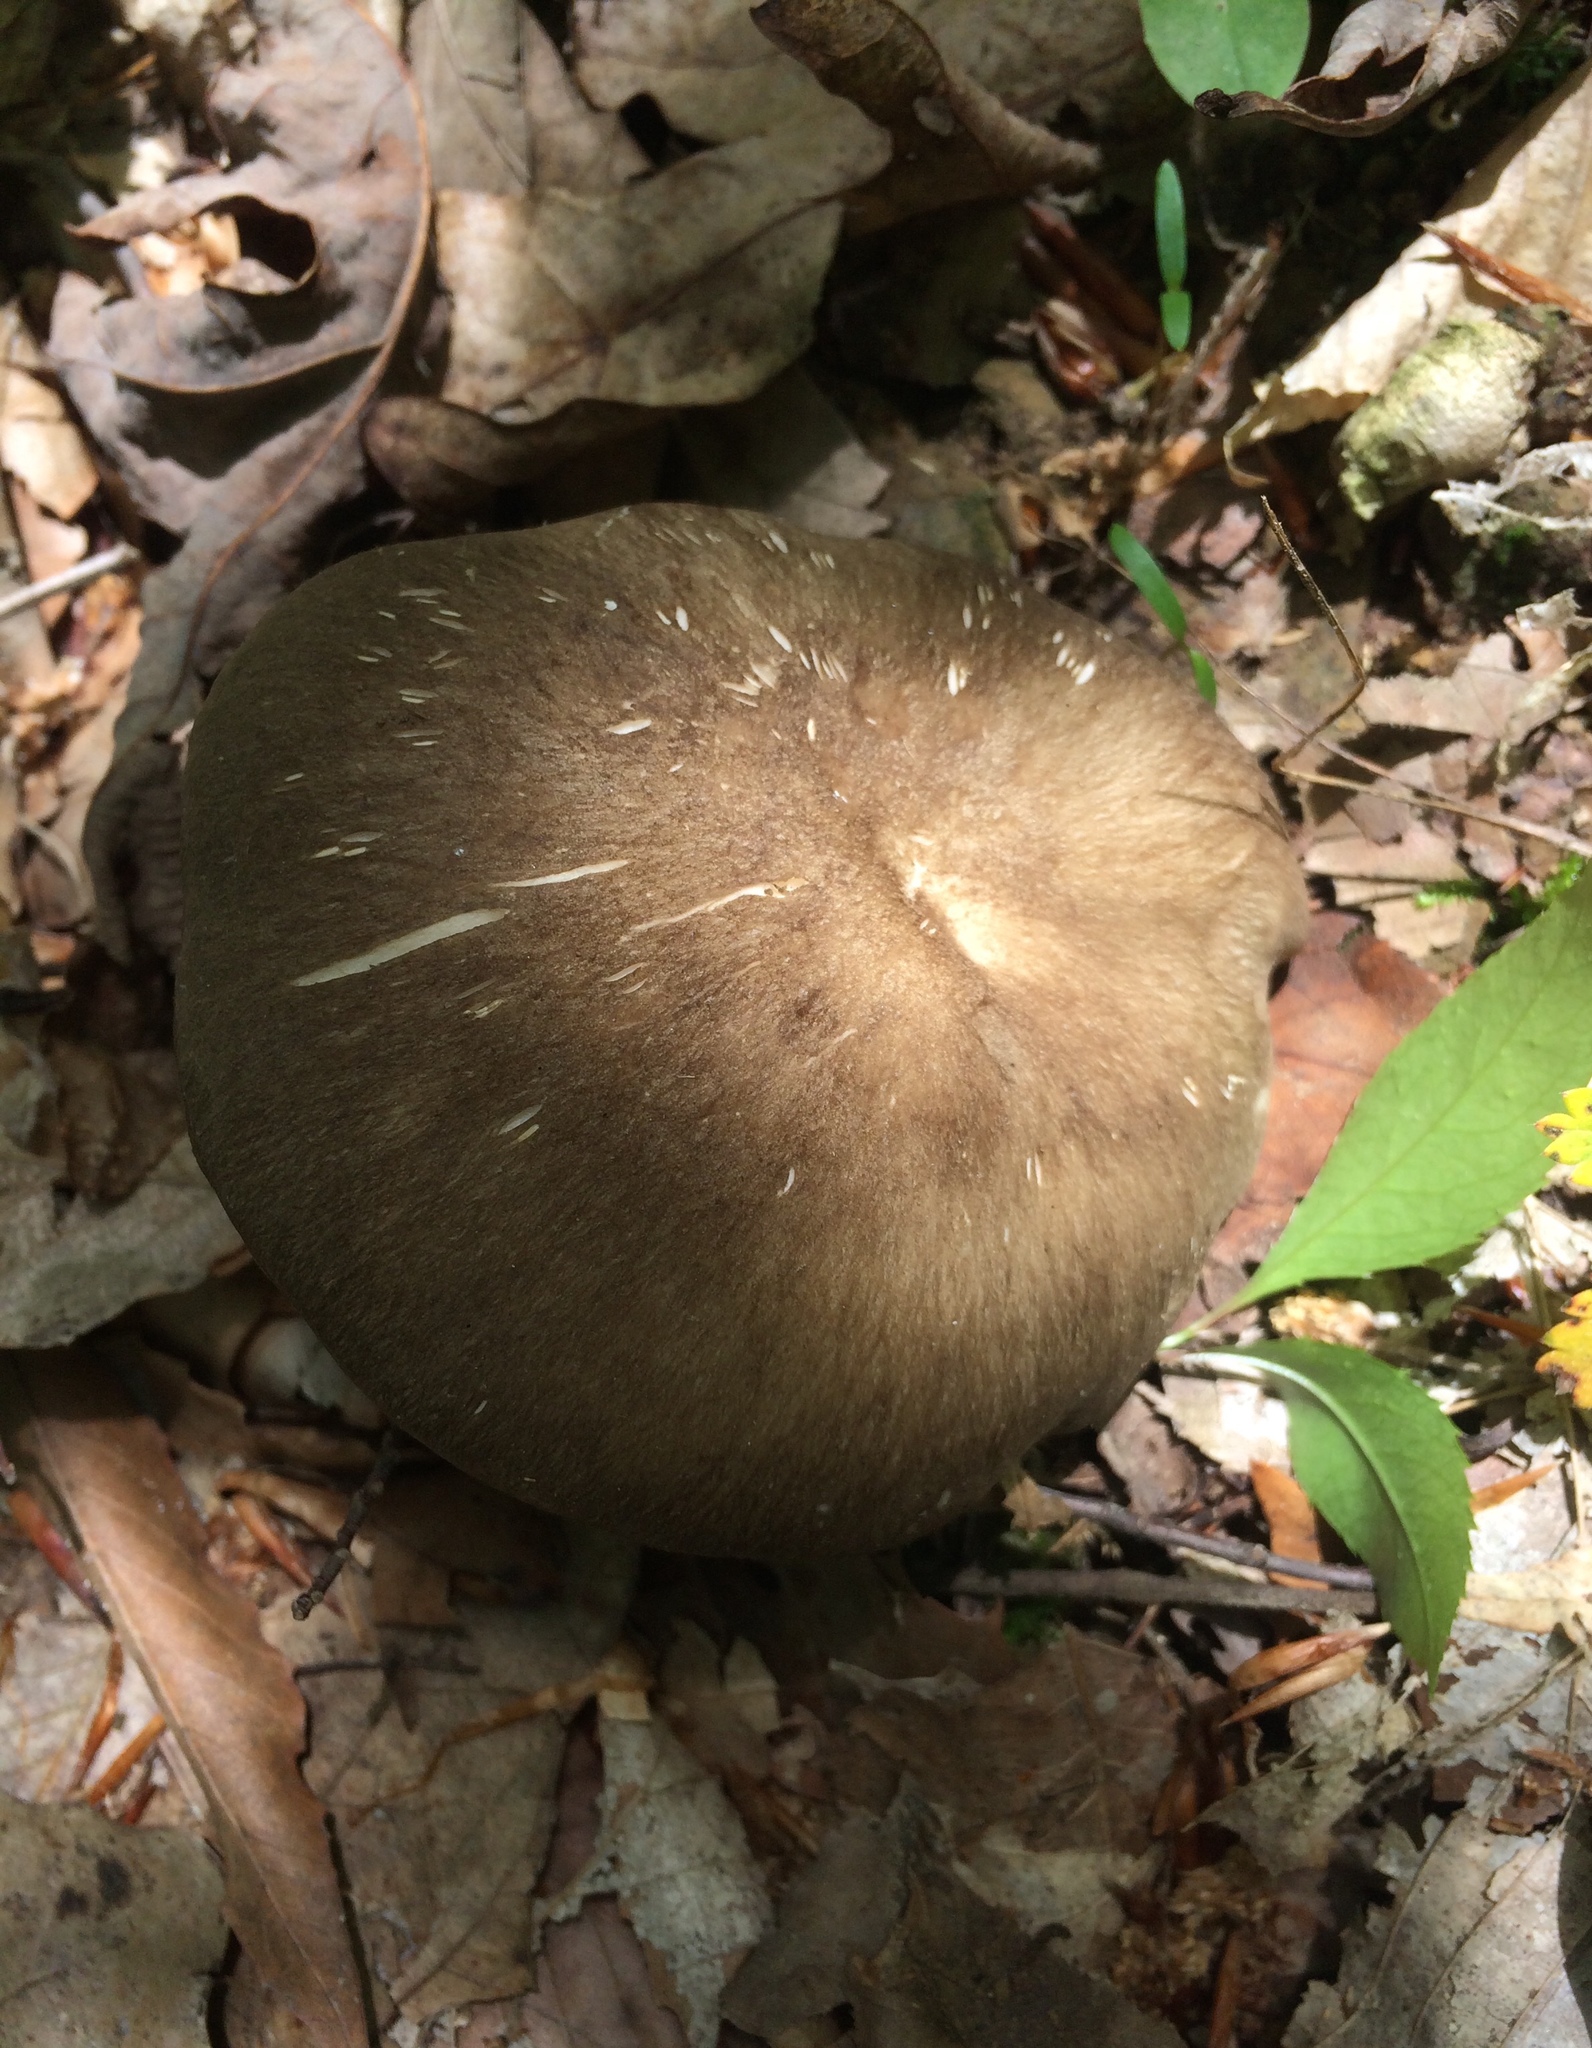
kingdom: Fungi
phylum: Basidiomycota
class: Agaricomycetes
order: Agaricales
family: Tricholomataceae
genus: Megacollybia
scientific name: Megacollybia rodmanii
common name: Eastern american platterful mushroom
